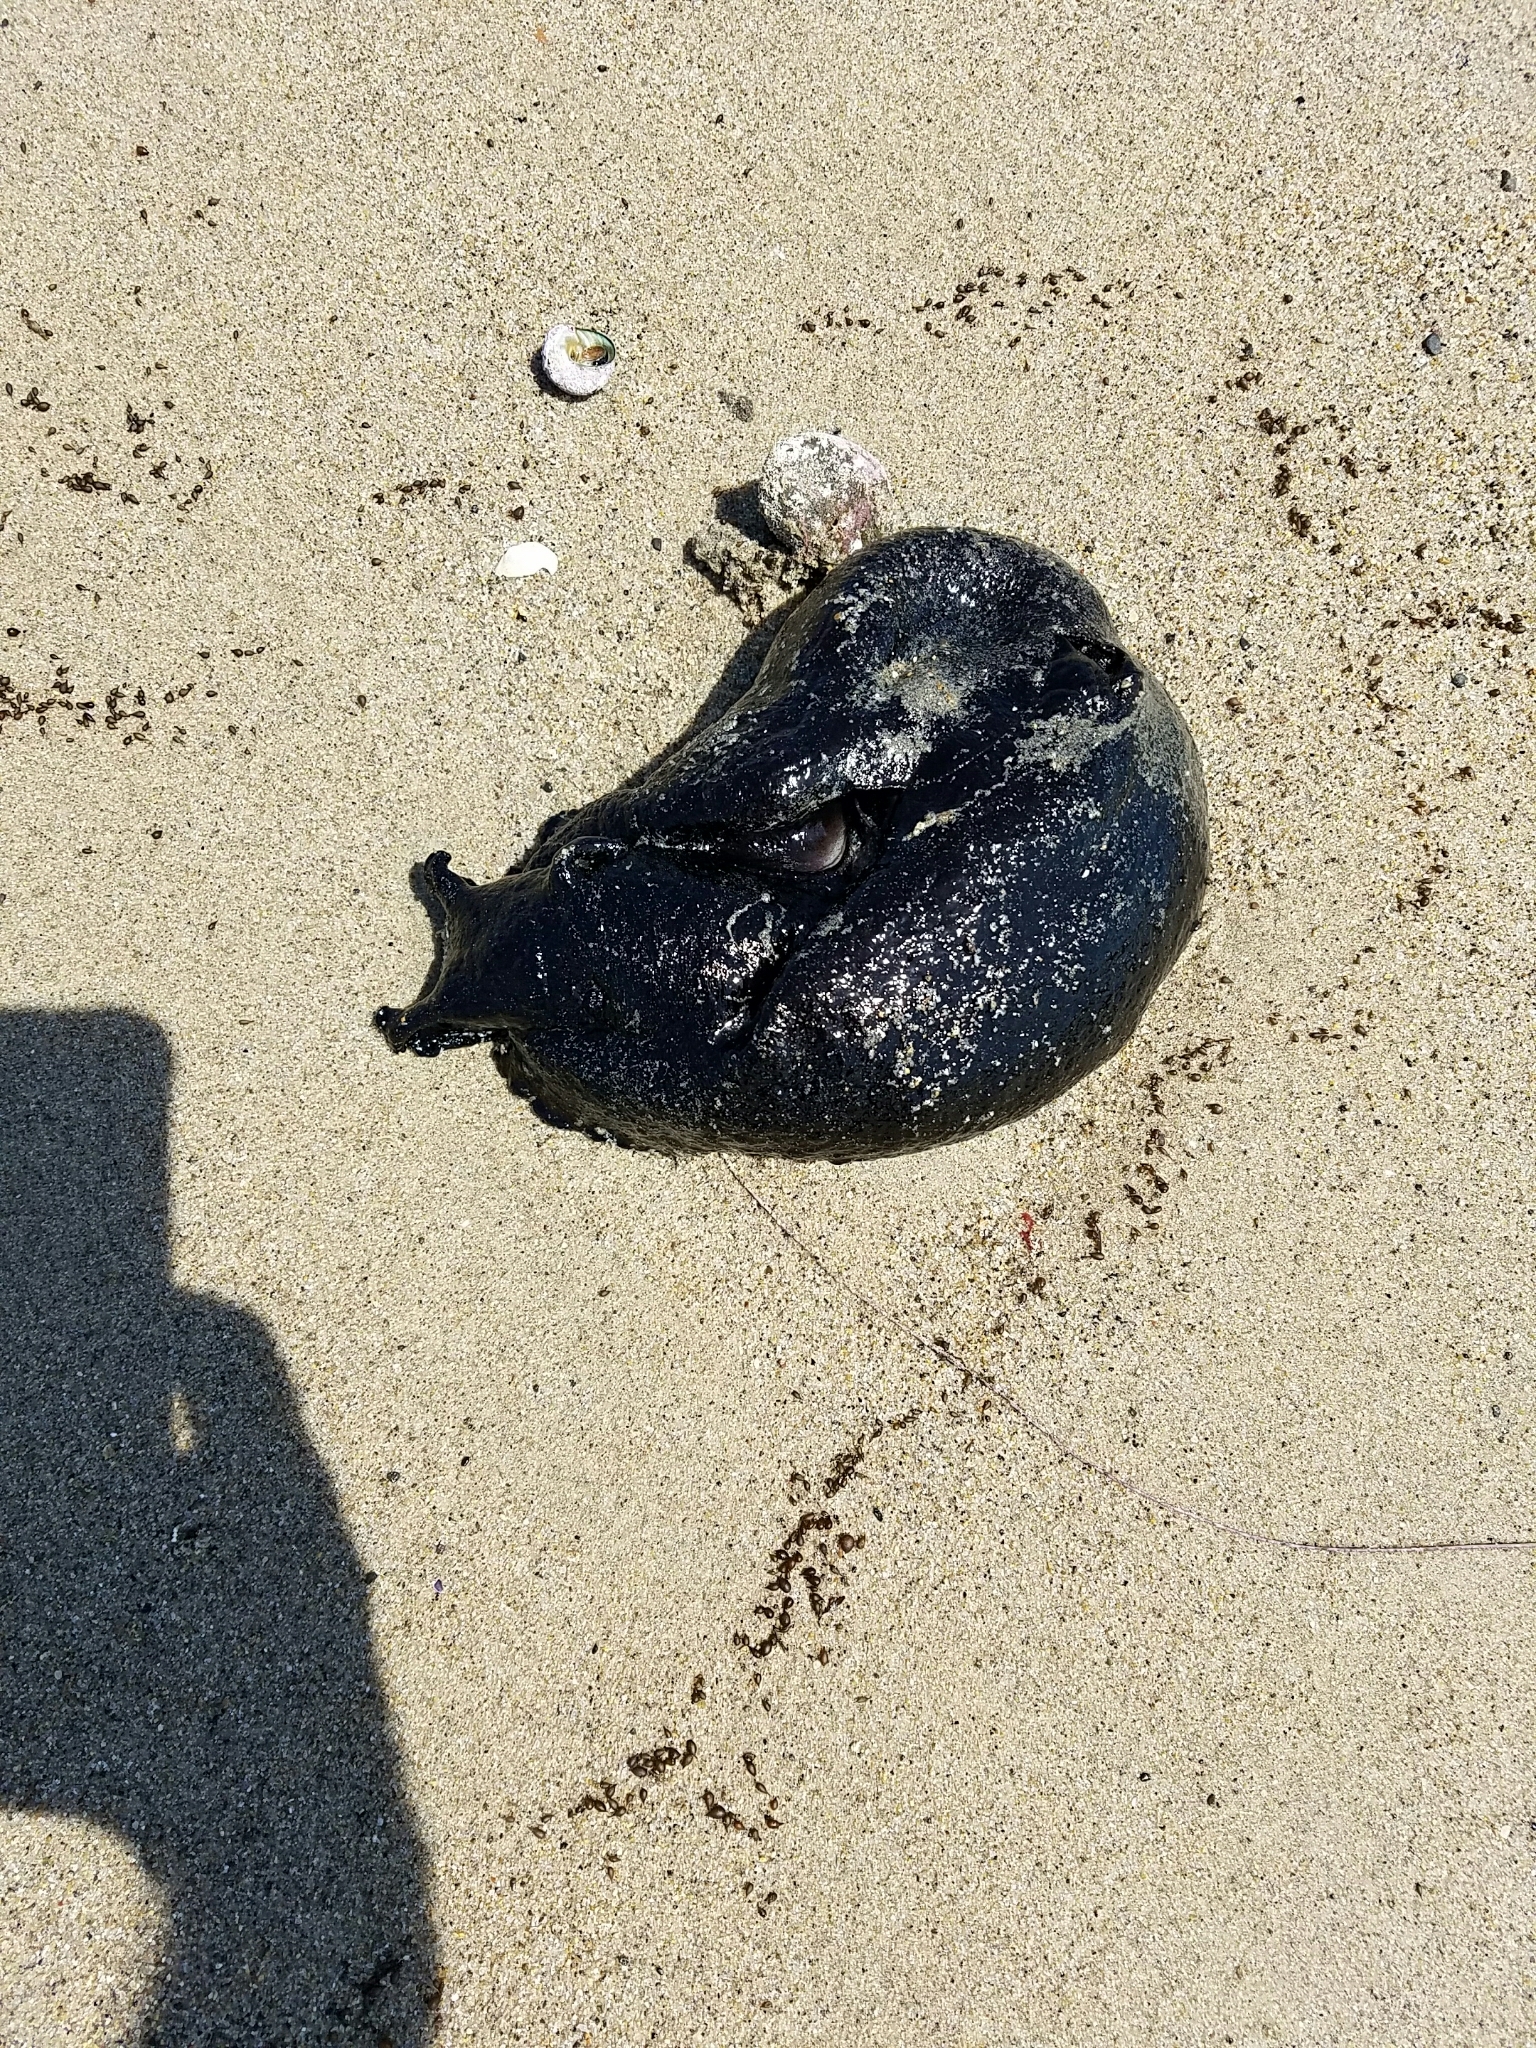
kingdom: Animalia
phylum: Mollusca
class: Gastropoda
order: Aplysiida
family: Aplysiidae
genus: Aplysia
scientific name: Aplysia vaccaria
